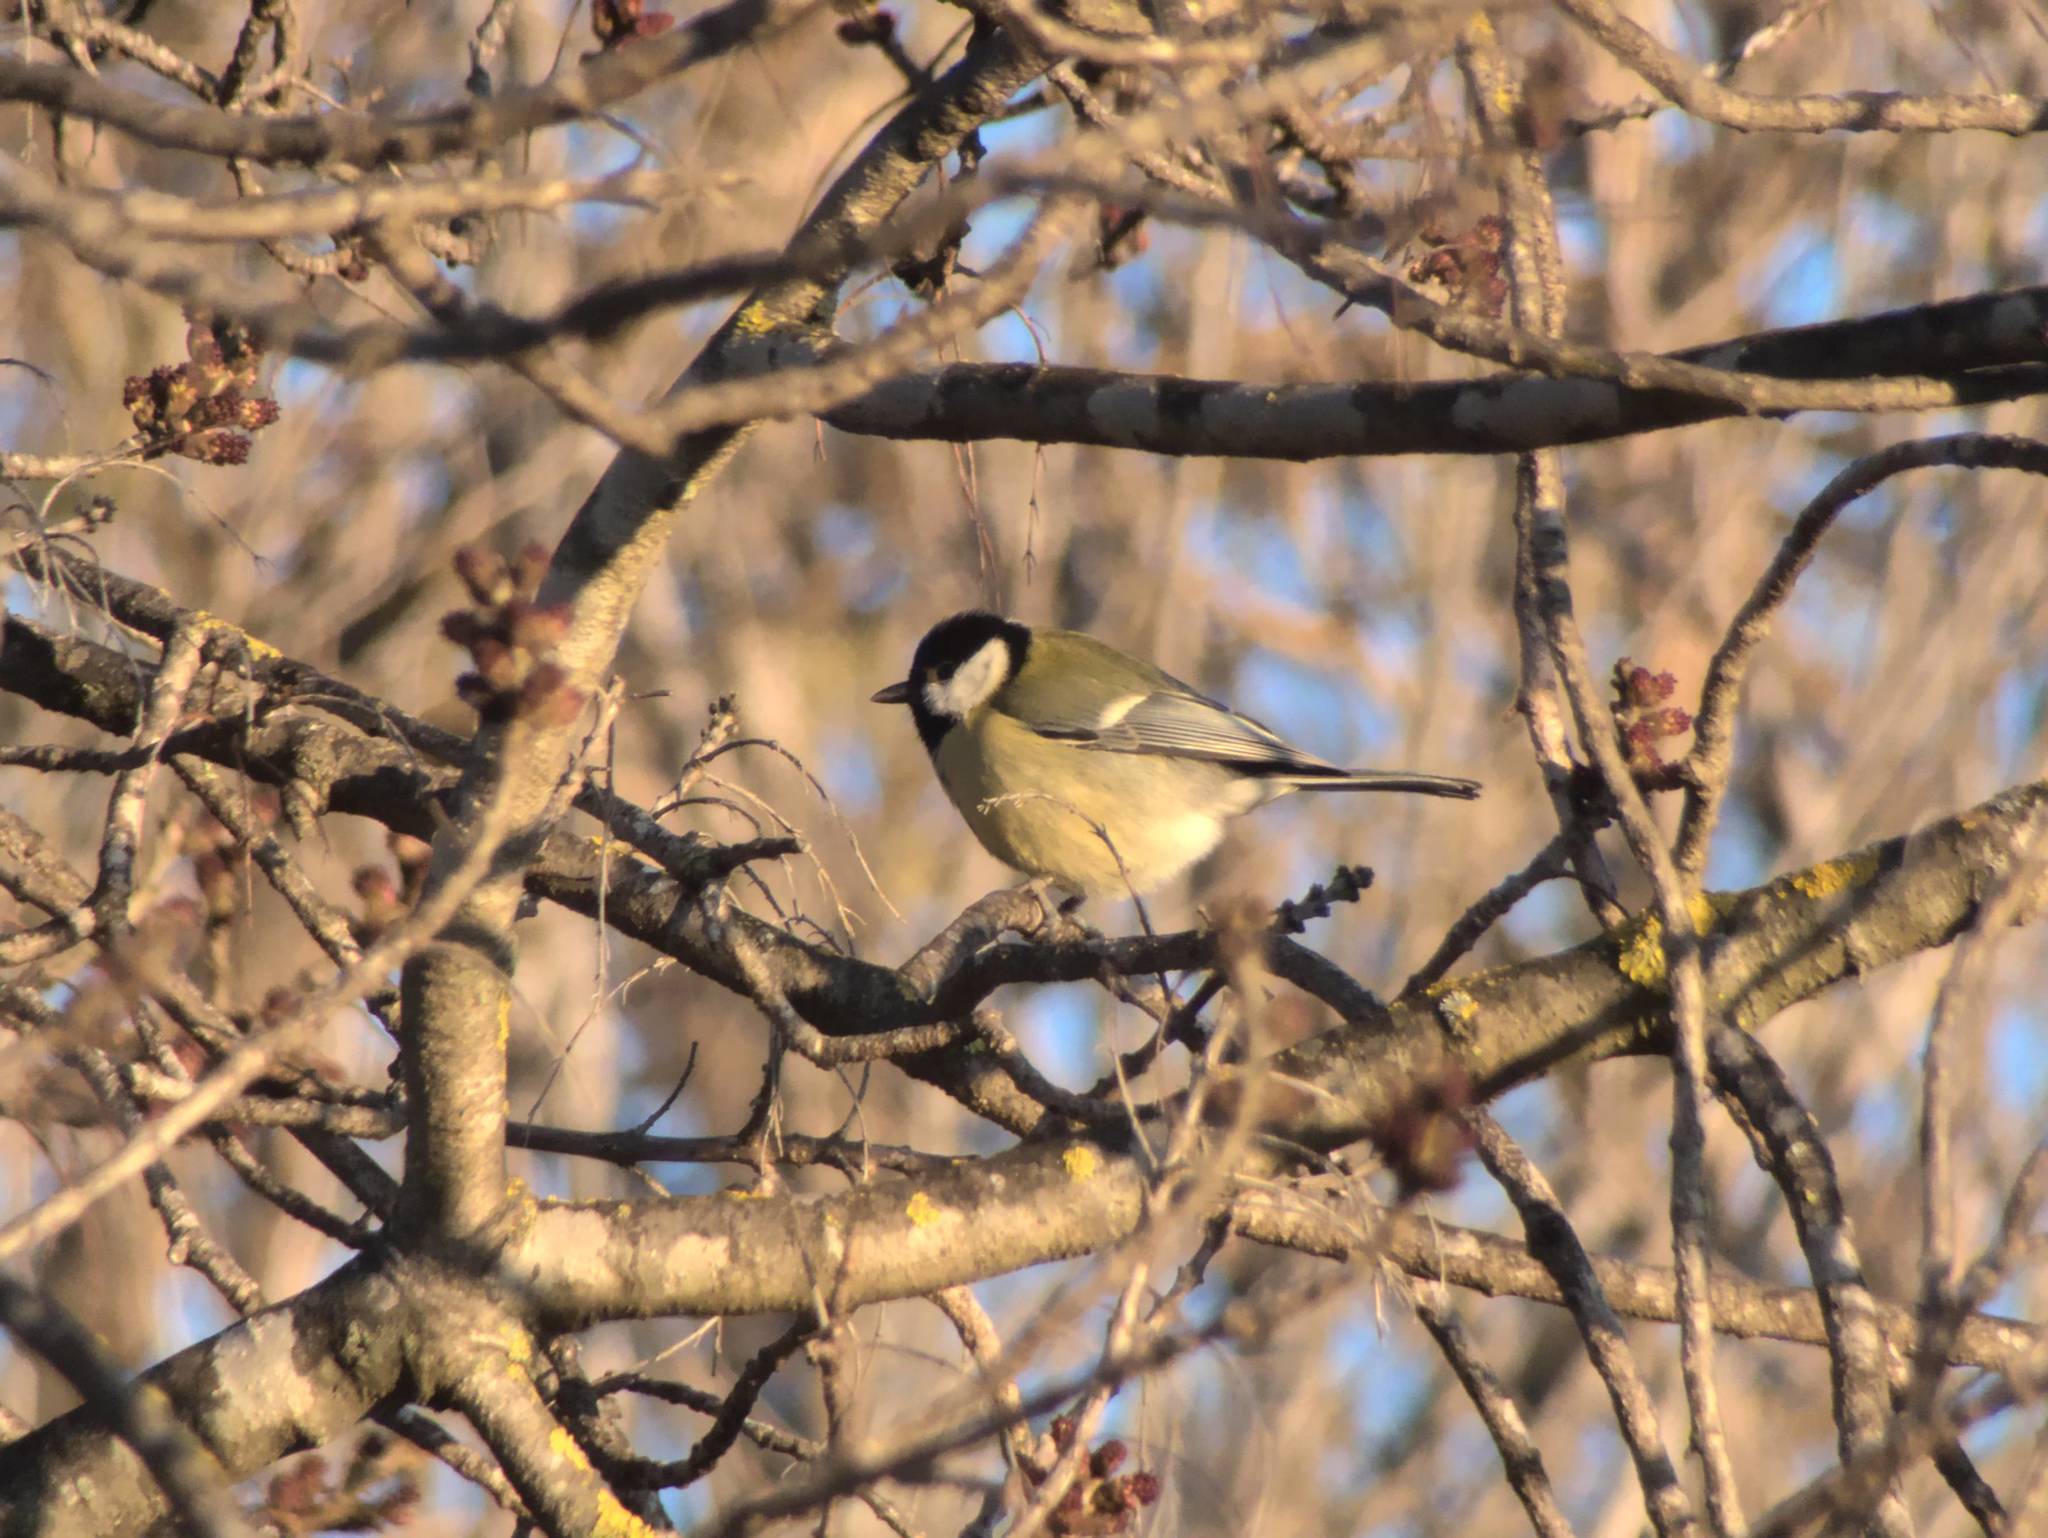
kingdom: Animalia
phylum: Chordata
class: Aves
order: Passeriformes
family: Paridae
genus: Parus
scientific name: Parus major
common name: Great tit
